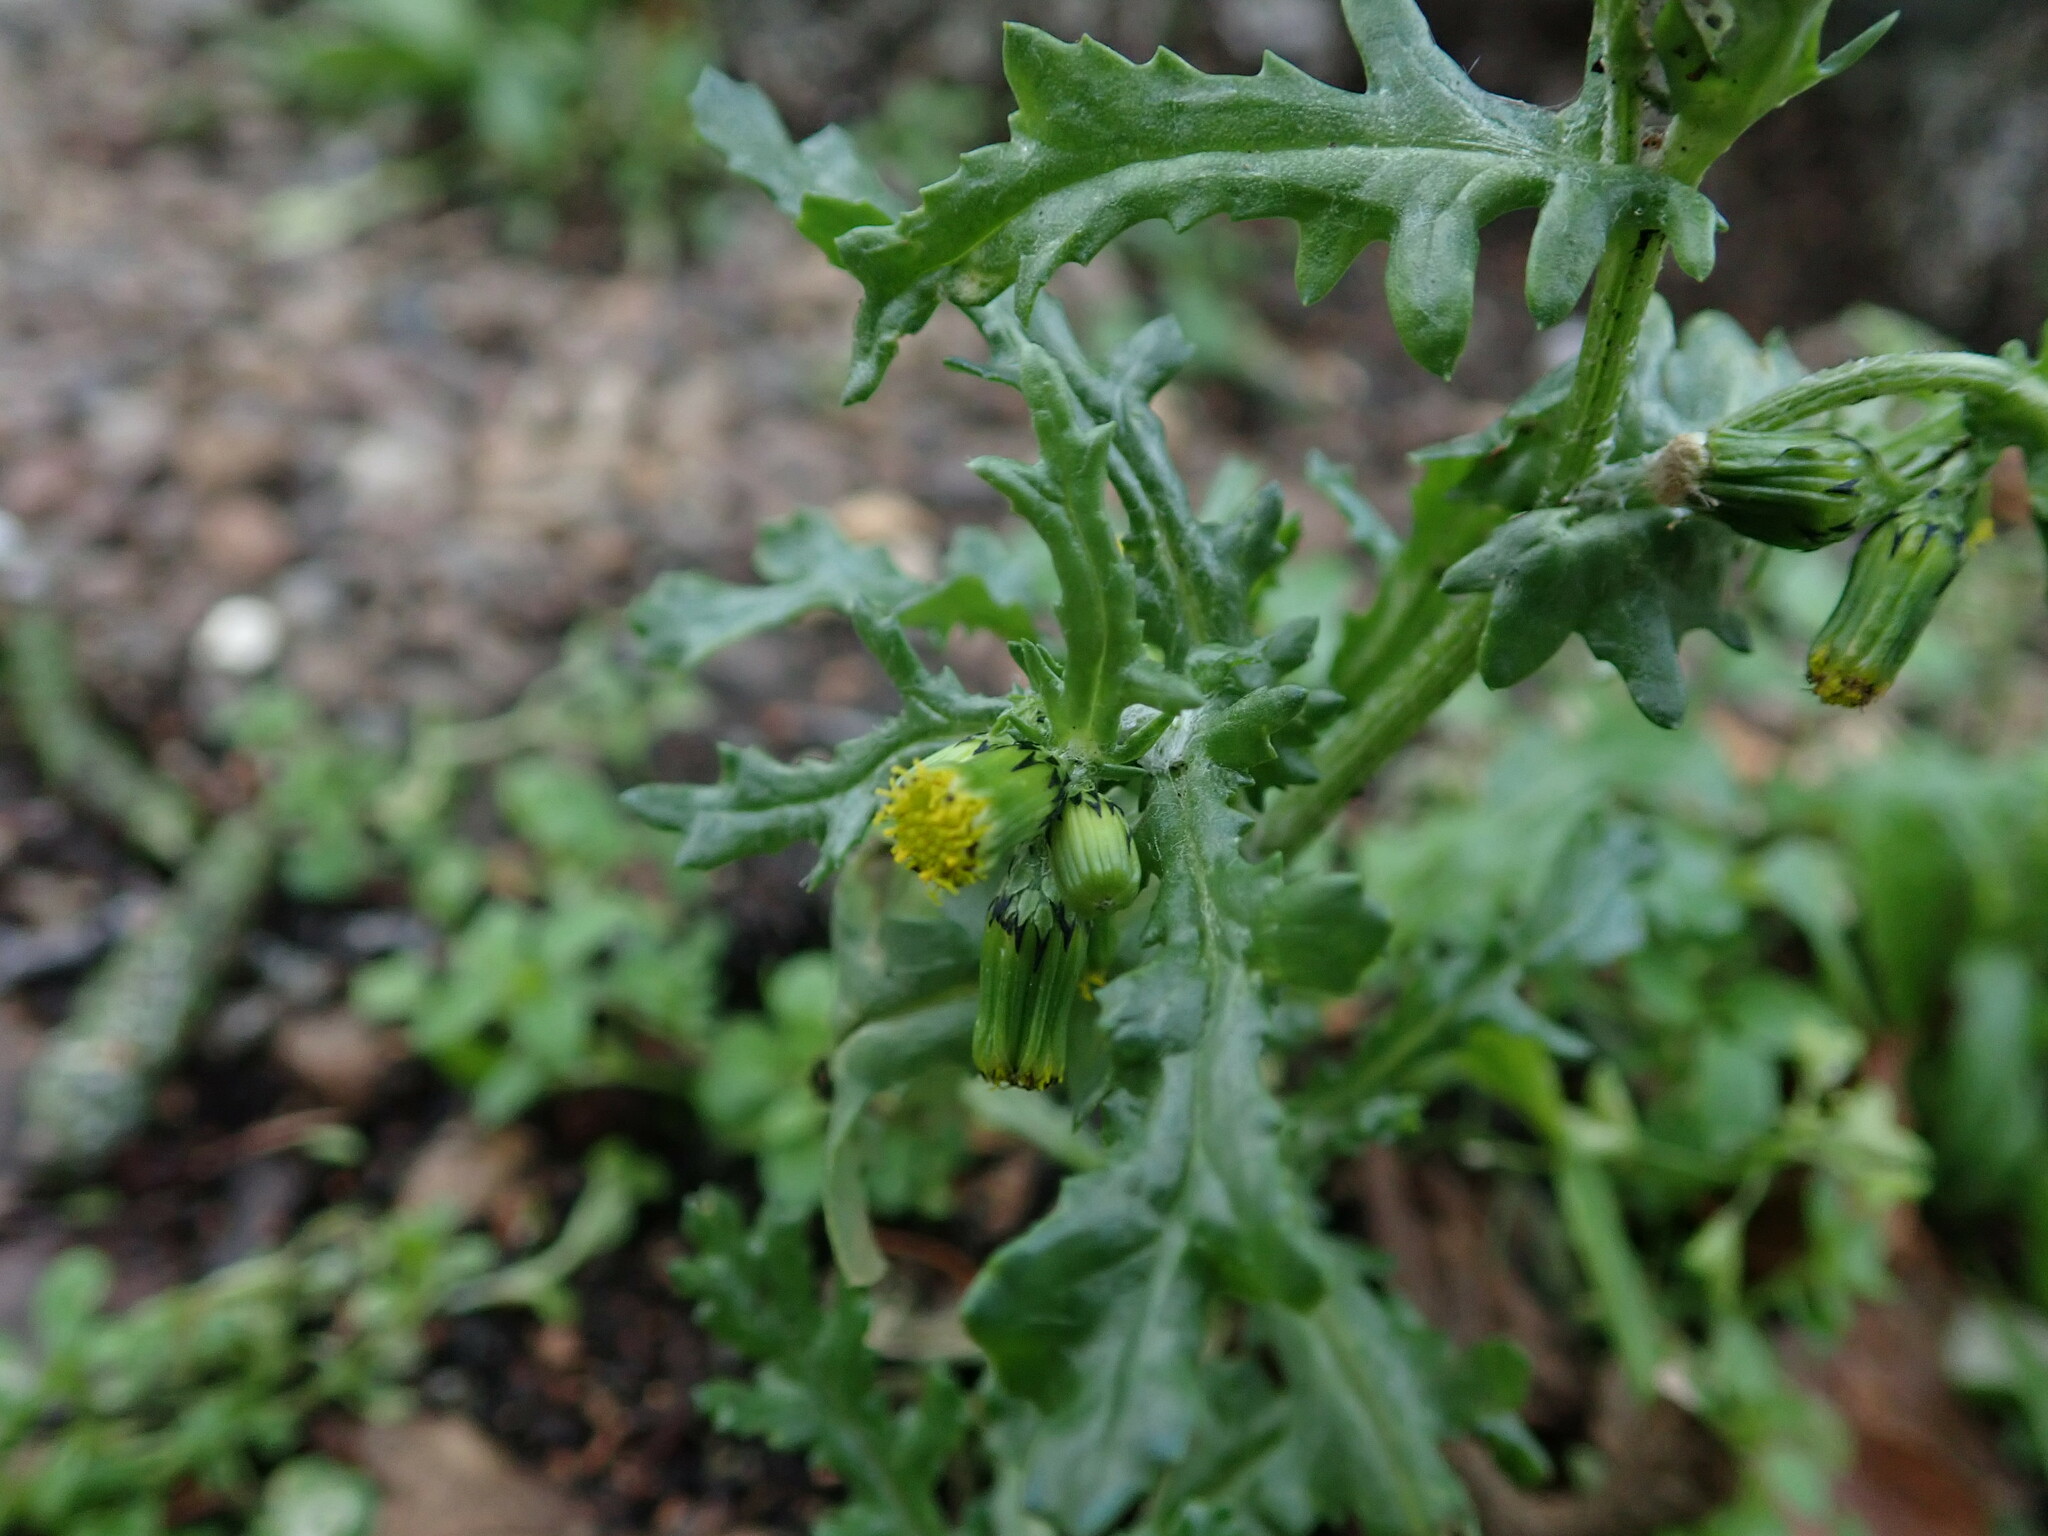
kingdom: Plantae
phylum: Tracheophyta
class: Magnoliopsida
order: Asterales
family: Asteraceae
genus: Senecio
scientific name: Senecio vulgaris
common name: Old-man-in-the-spring
